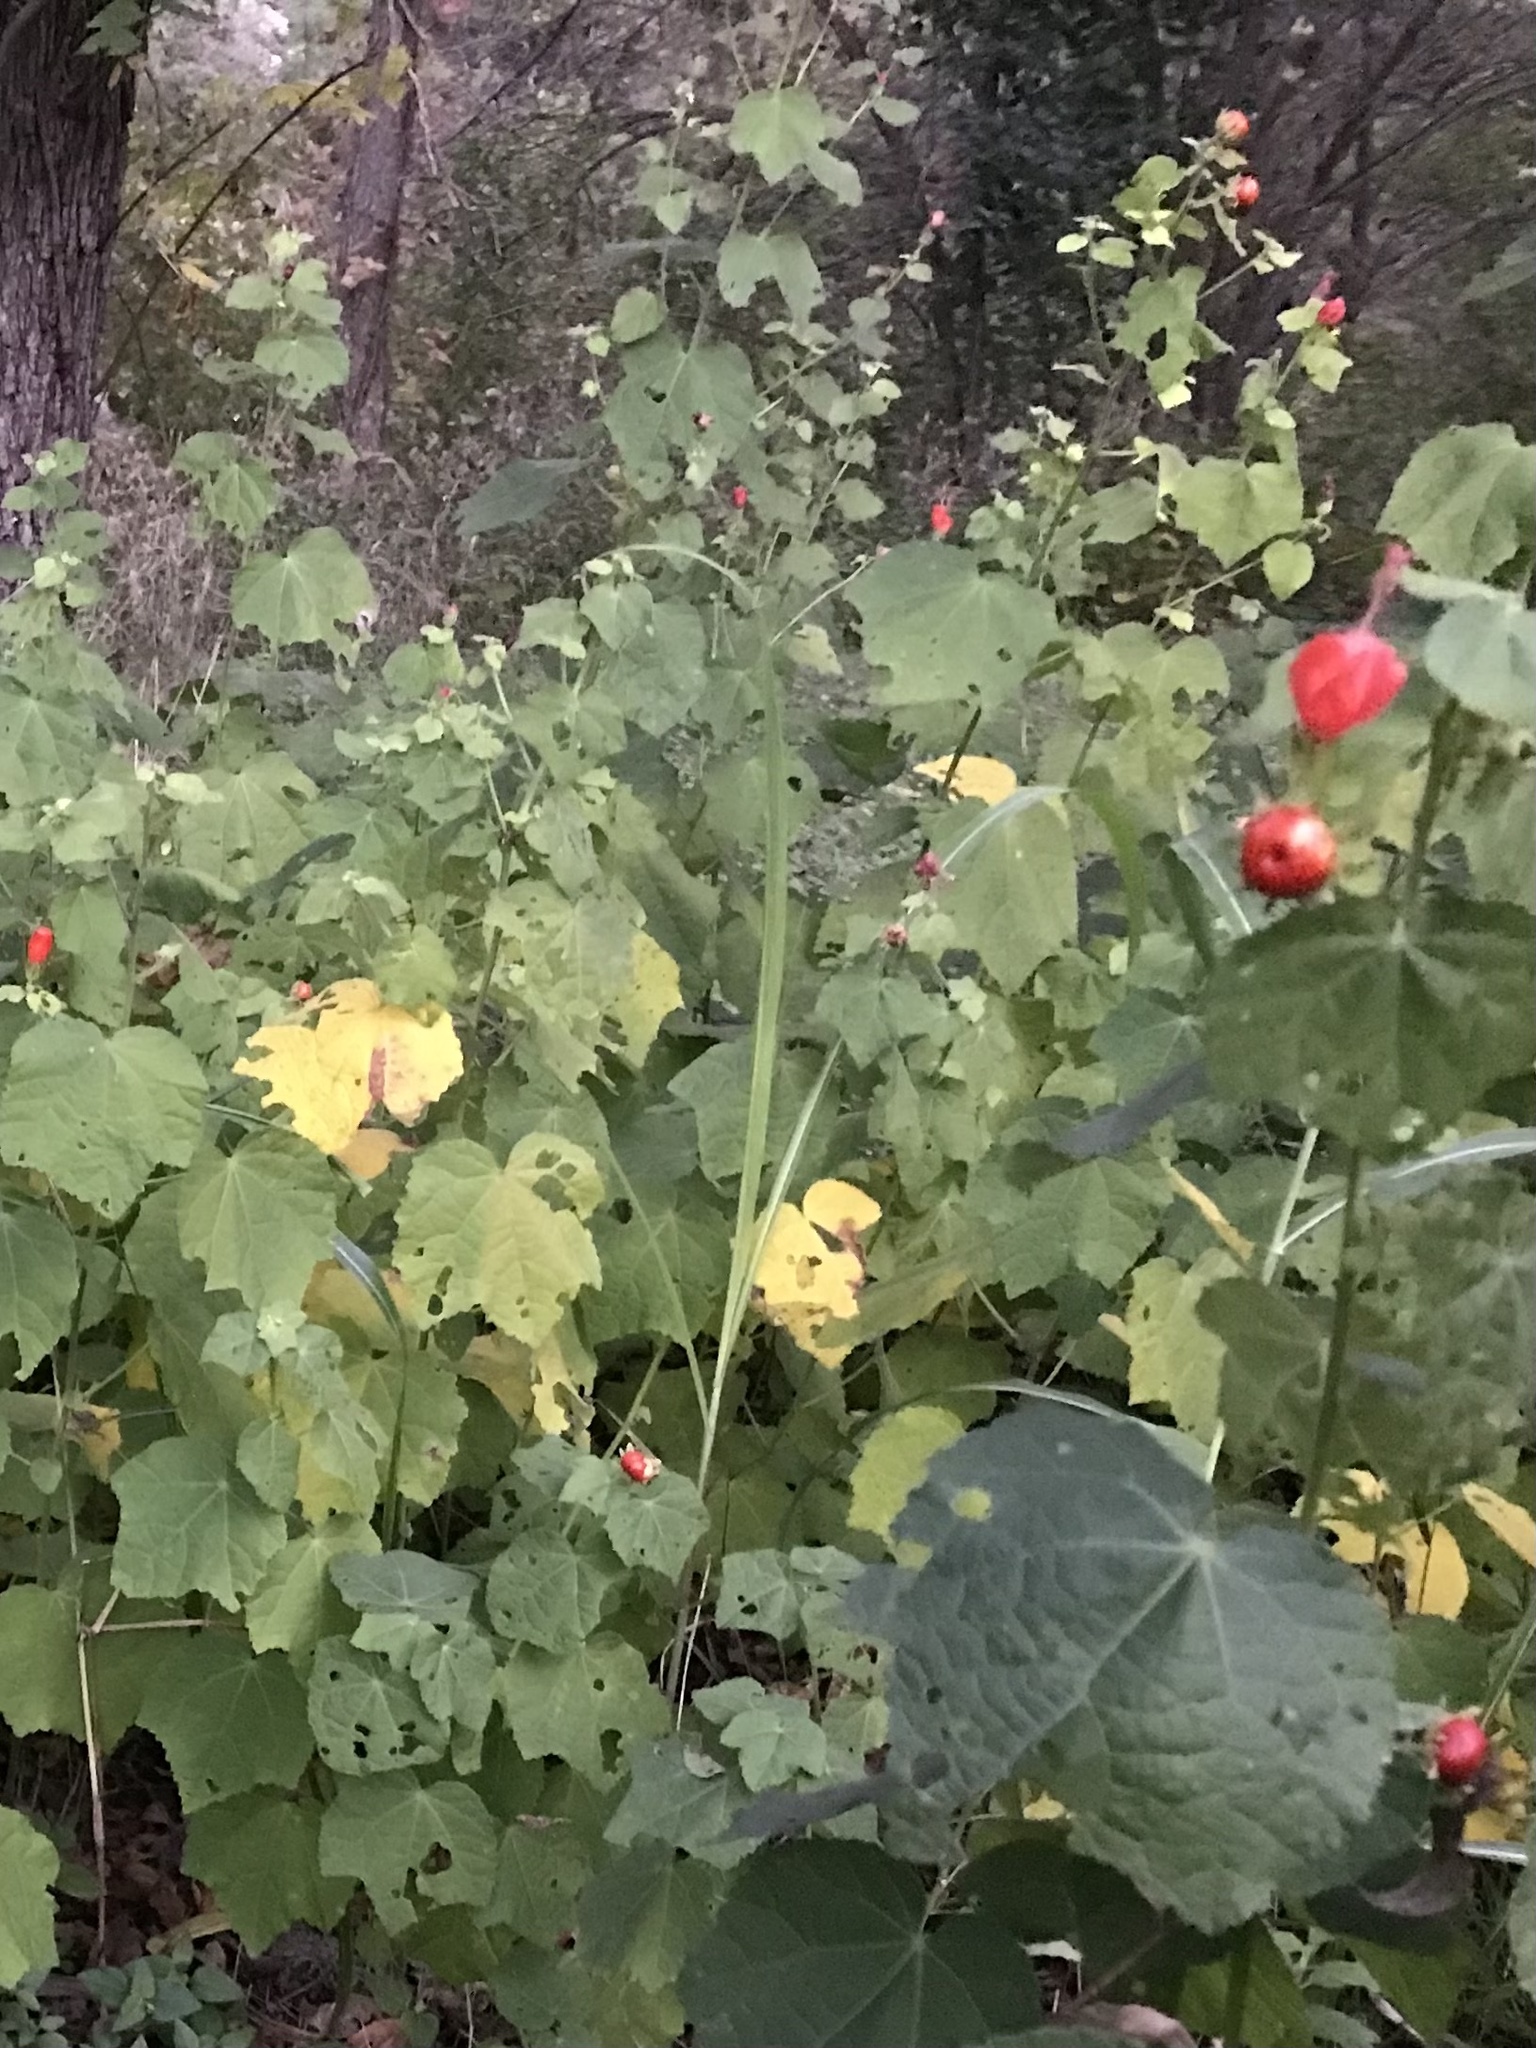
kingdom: Plantae
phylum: Tracheophyta
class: Magnoliopsida
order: Malvales
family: Malvaceae
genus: Malvaviscus
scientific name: Malvaviscus arboreus
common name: Wax mallow
